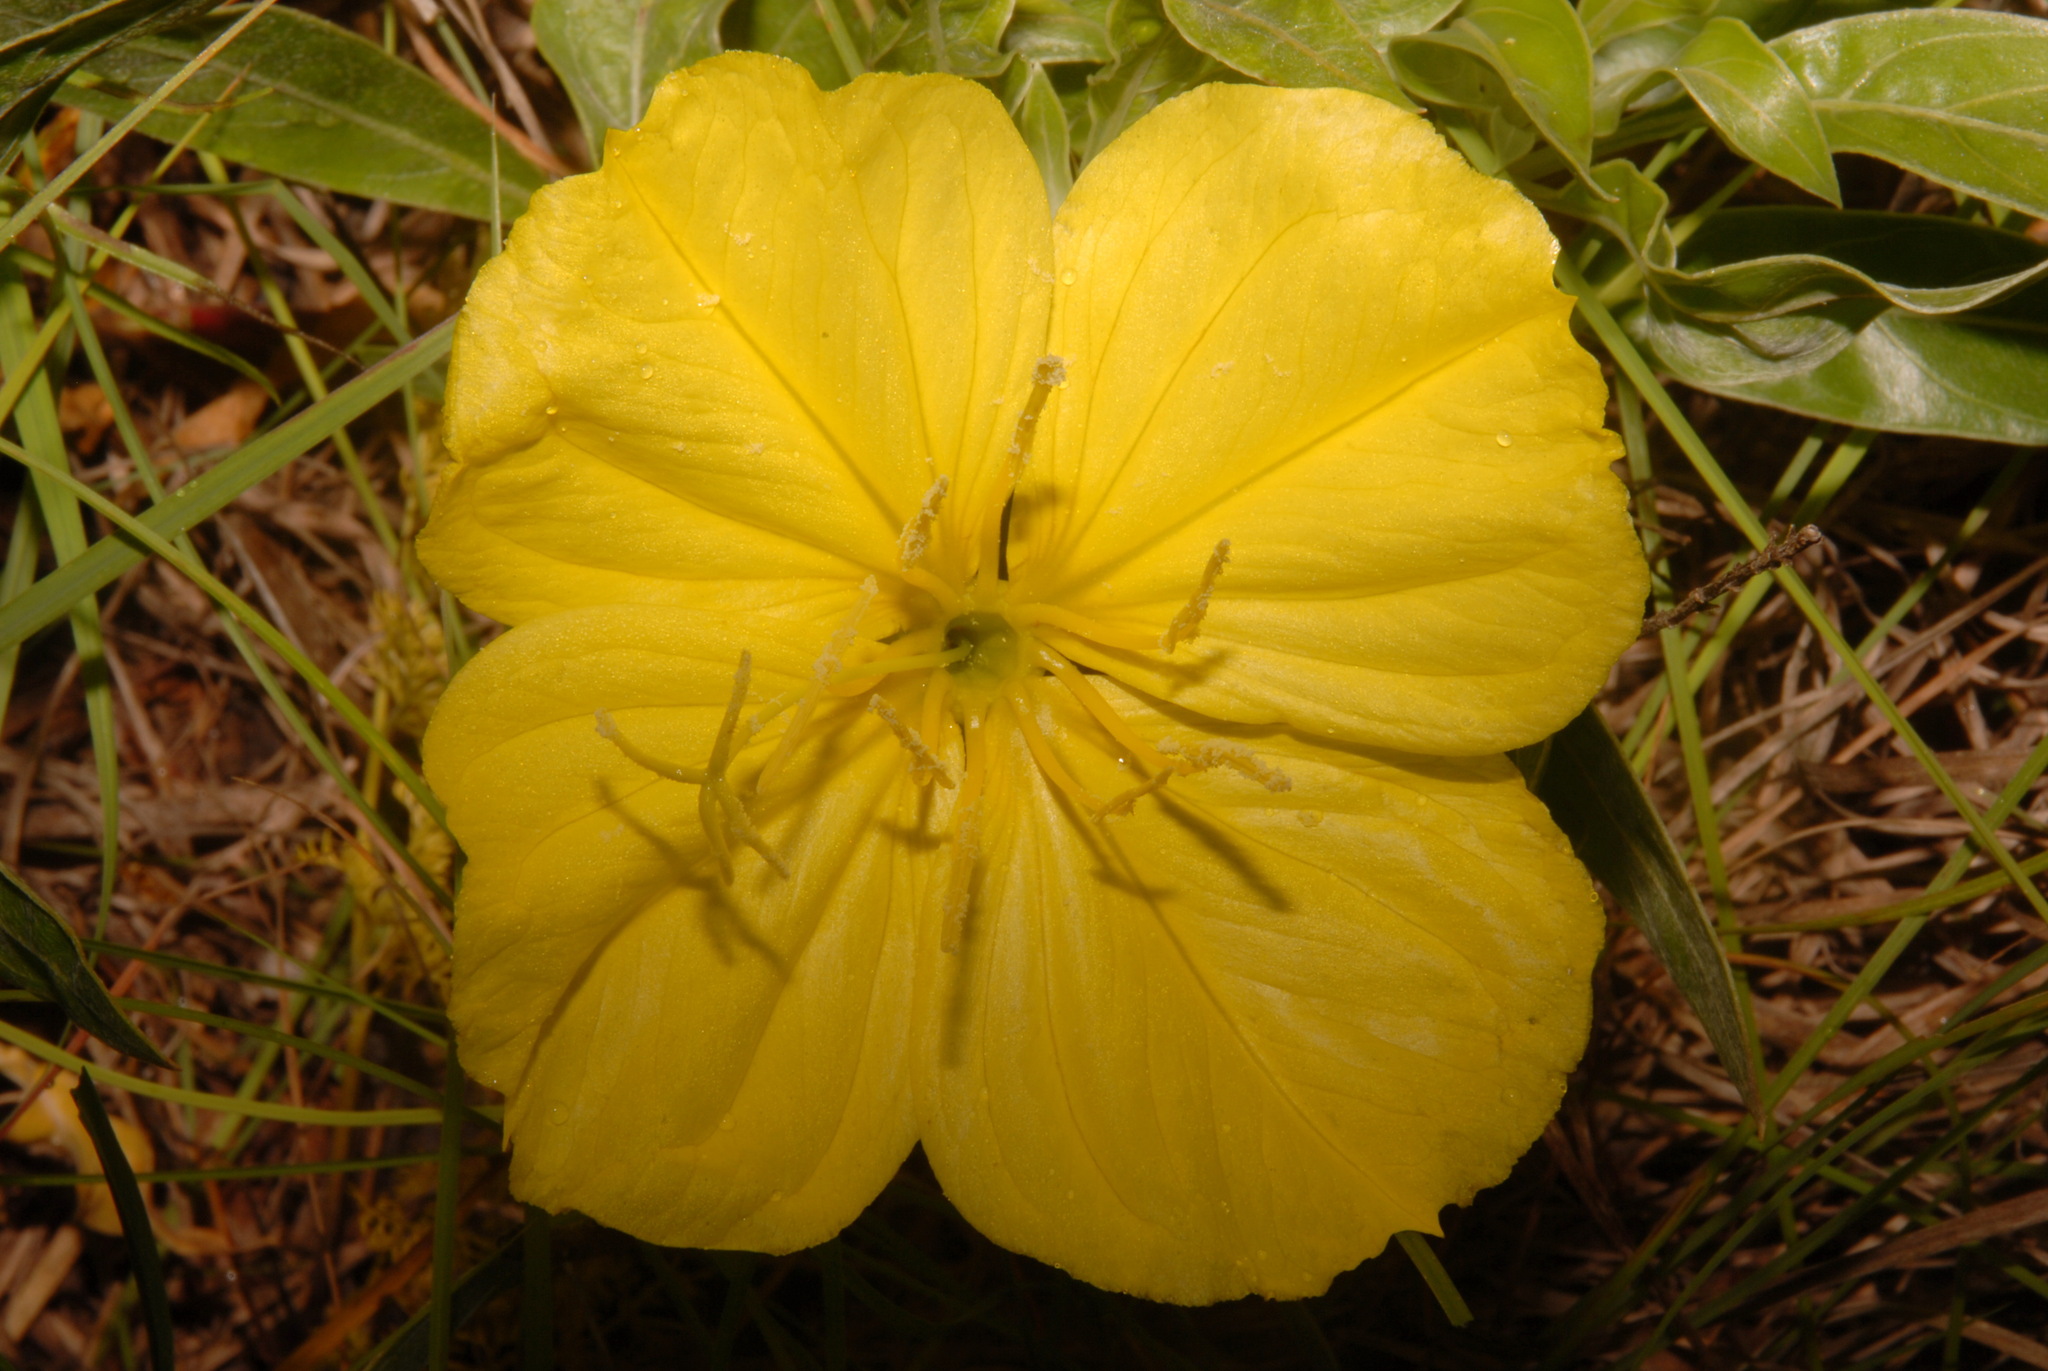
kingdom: Plantae
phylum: Tracheophyta
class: Magnoliopsida
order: Myrtales
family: Onagraceae
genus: Oenothera
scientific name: Oenothera macrocarpa
